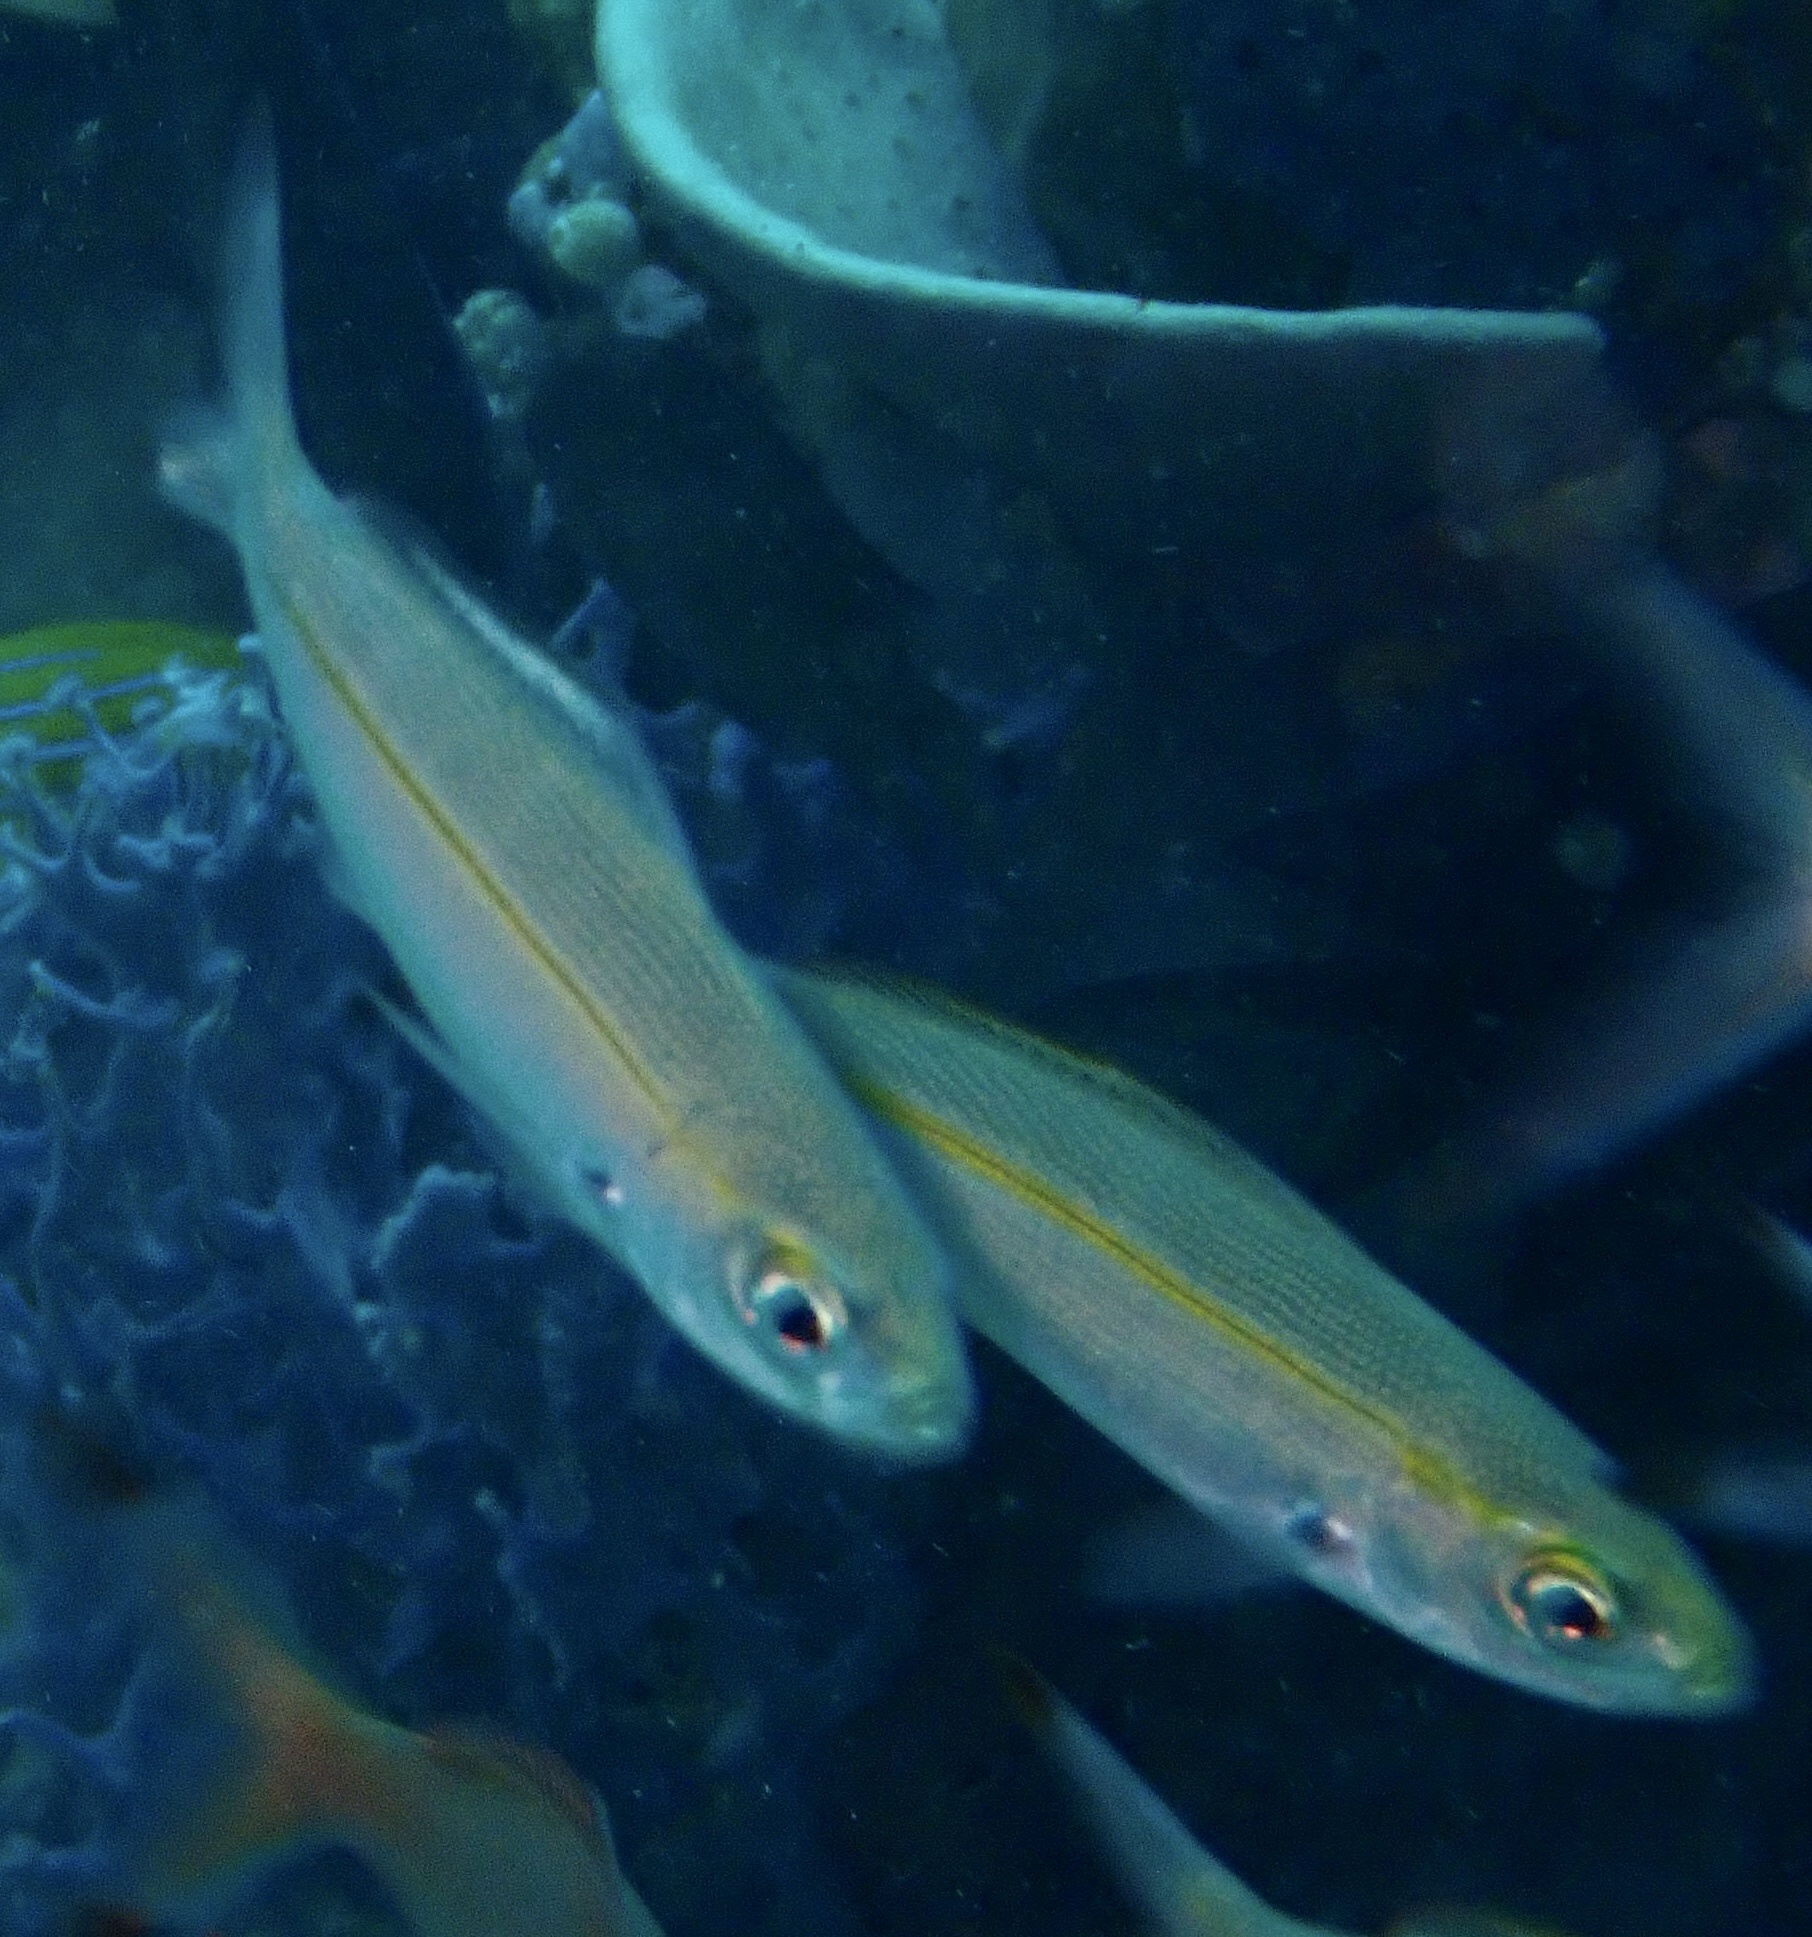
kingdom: Animalia
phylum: Chordata
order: Perciformes
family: Caesionidae
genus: Pterocaesio
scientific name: Pterocaesio tessellata
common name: One-stripe fusilier
